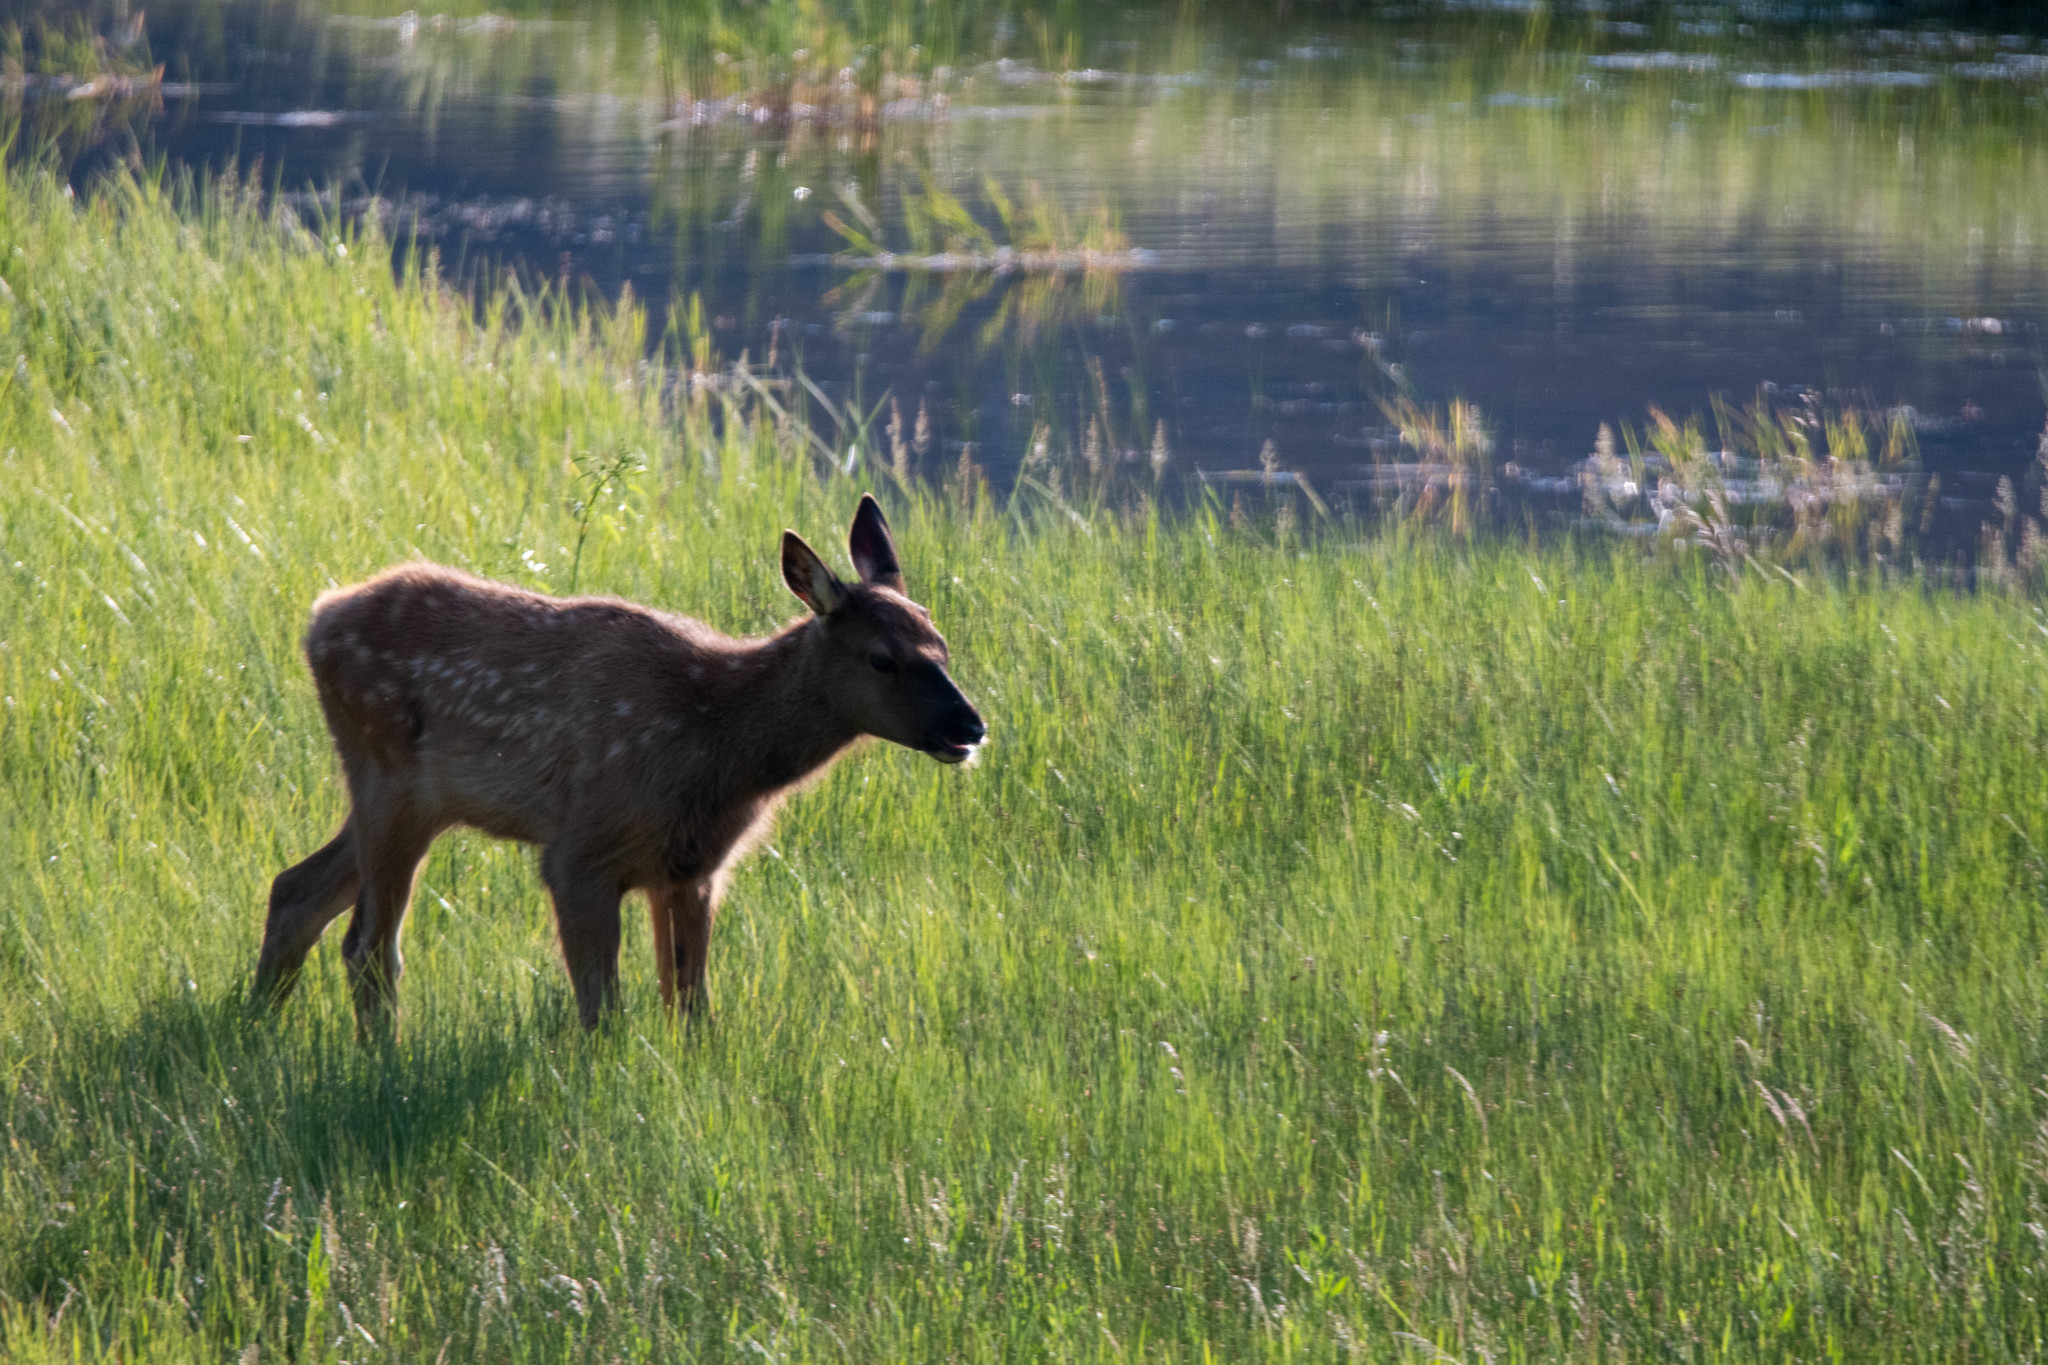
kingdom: Animalia
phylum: Chordata
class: Mammalia
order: Artiodactyla
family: Cervidae
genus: Cervus
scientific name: Cervus elaphus
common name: Red deer
